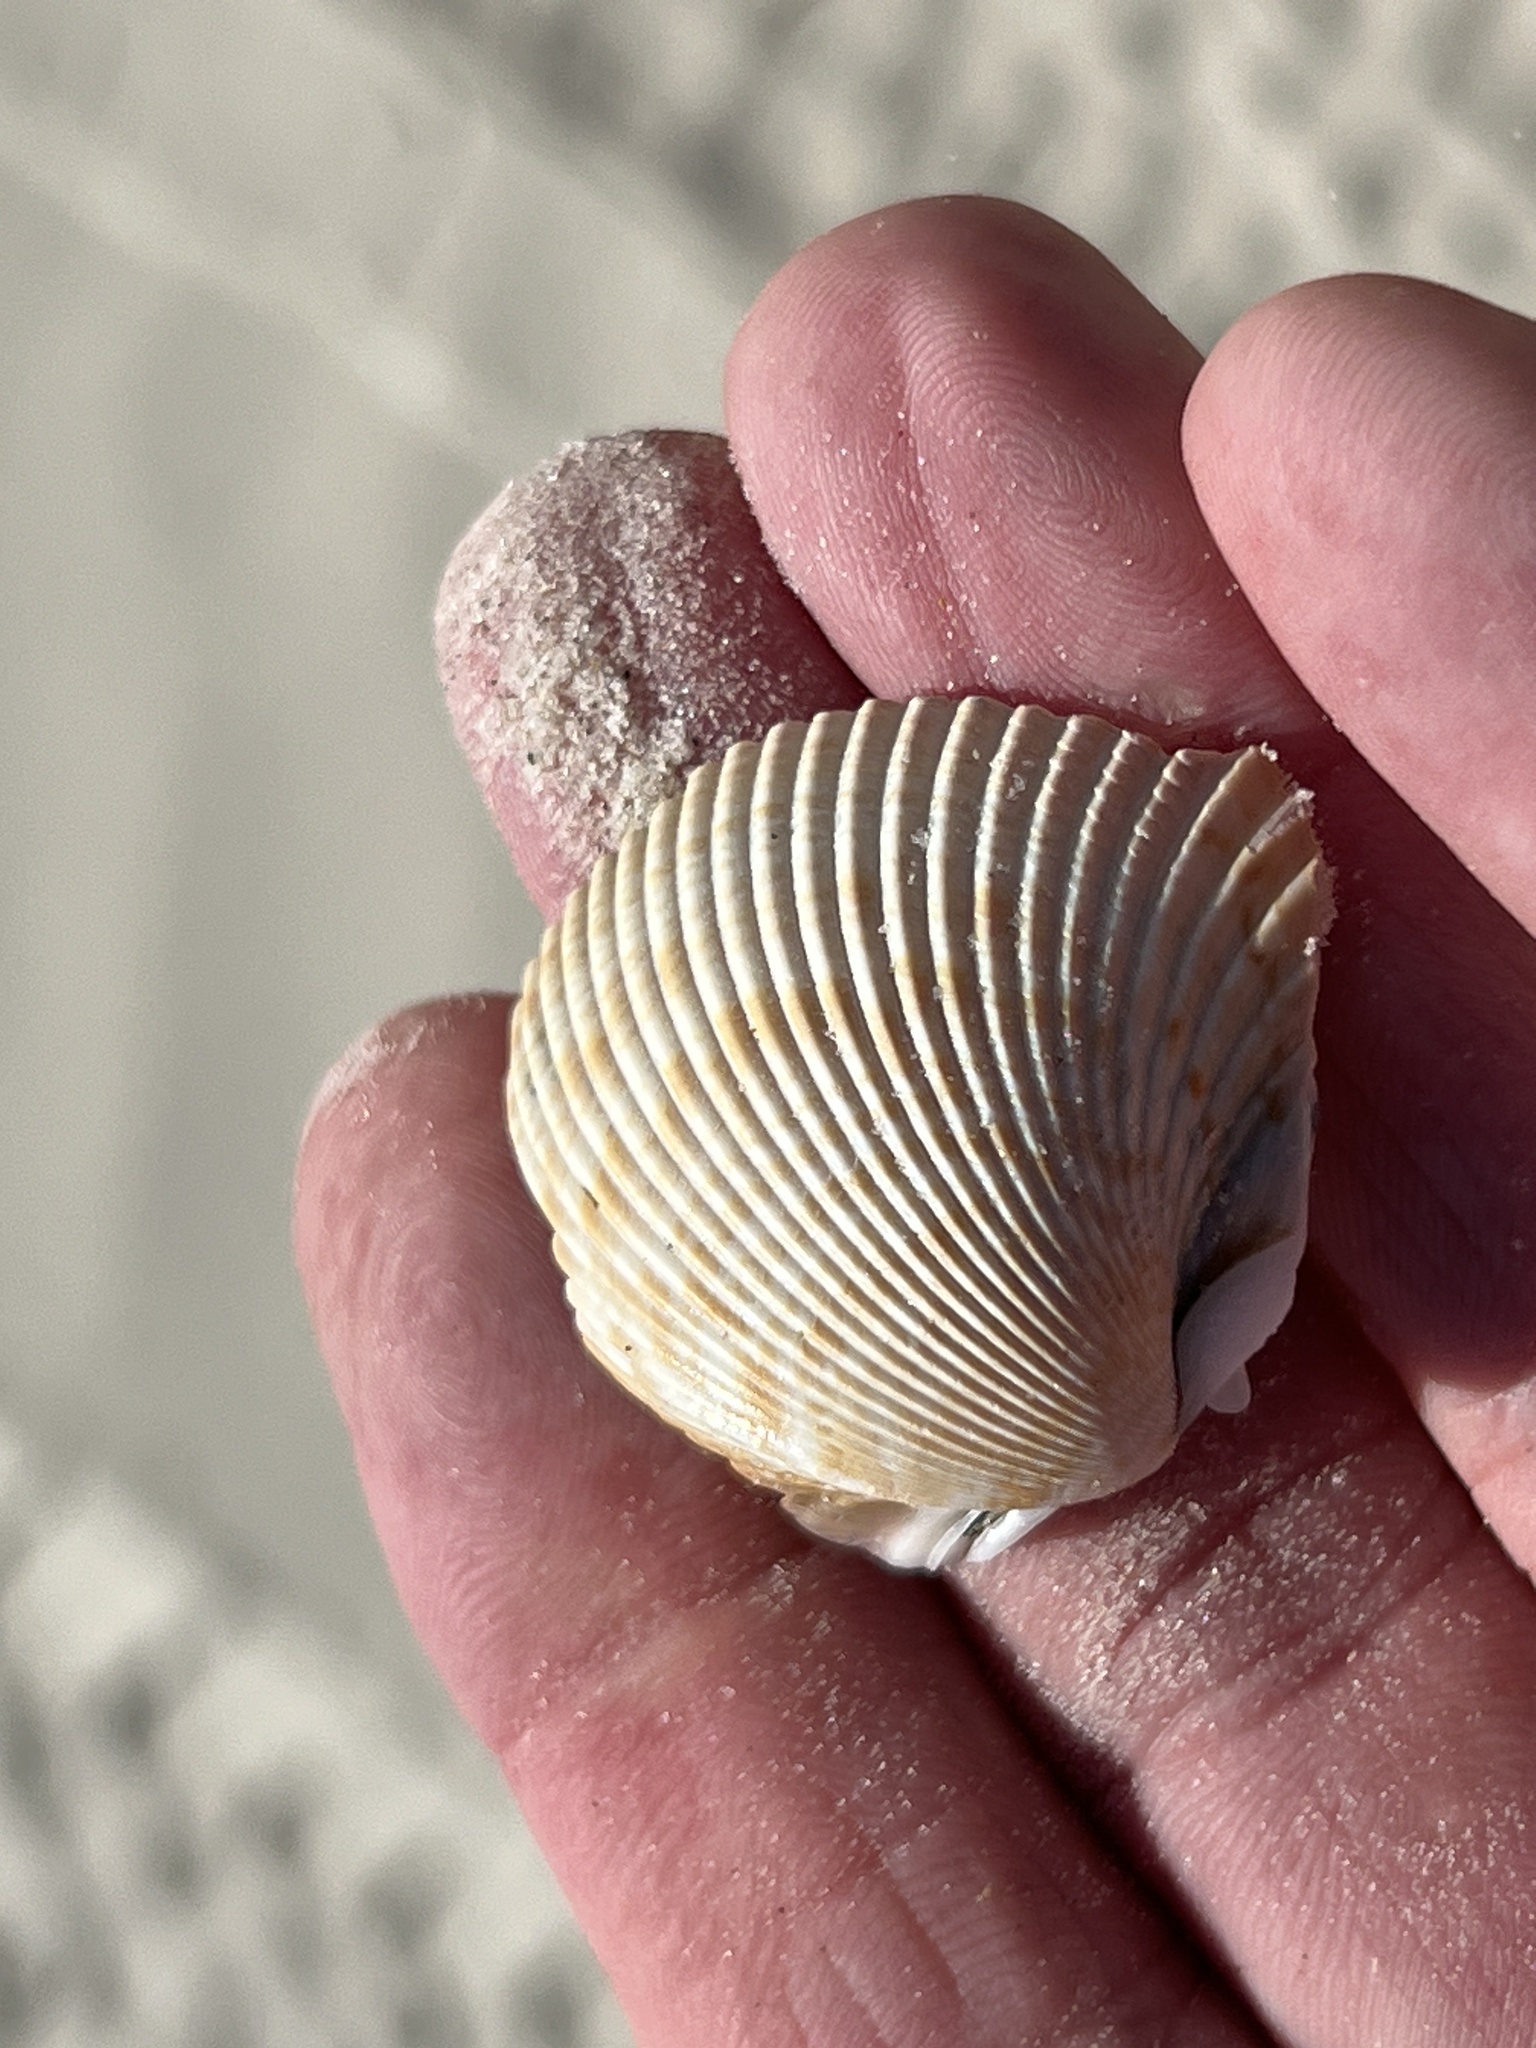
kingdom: Animalia
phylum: Mollusca
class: Bivalvia
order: Cardiida
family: Cardiidae
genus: Dinocardium
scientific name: Dinocardium robustum
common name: Atlantic giant cockle
